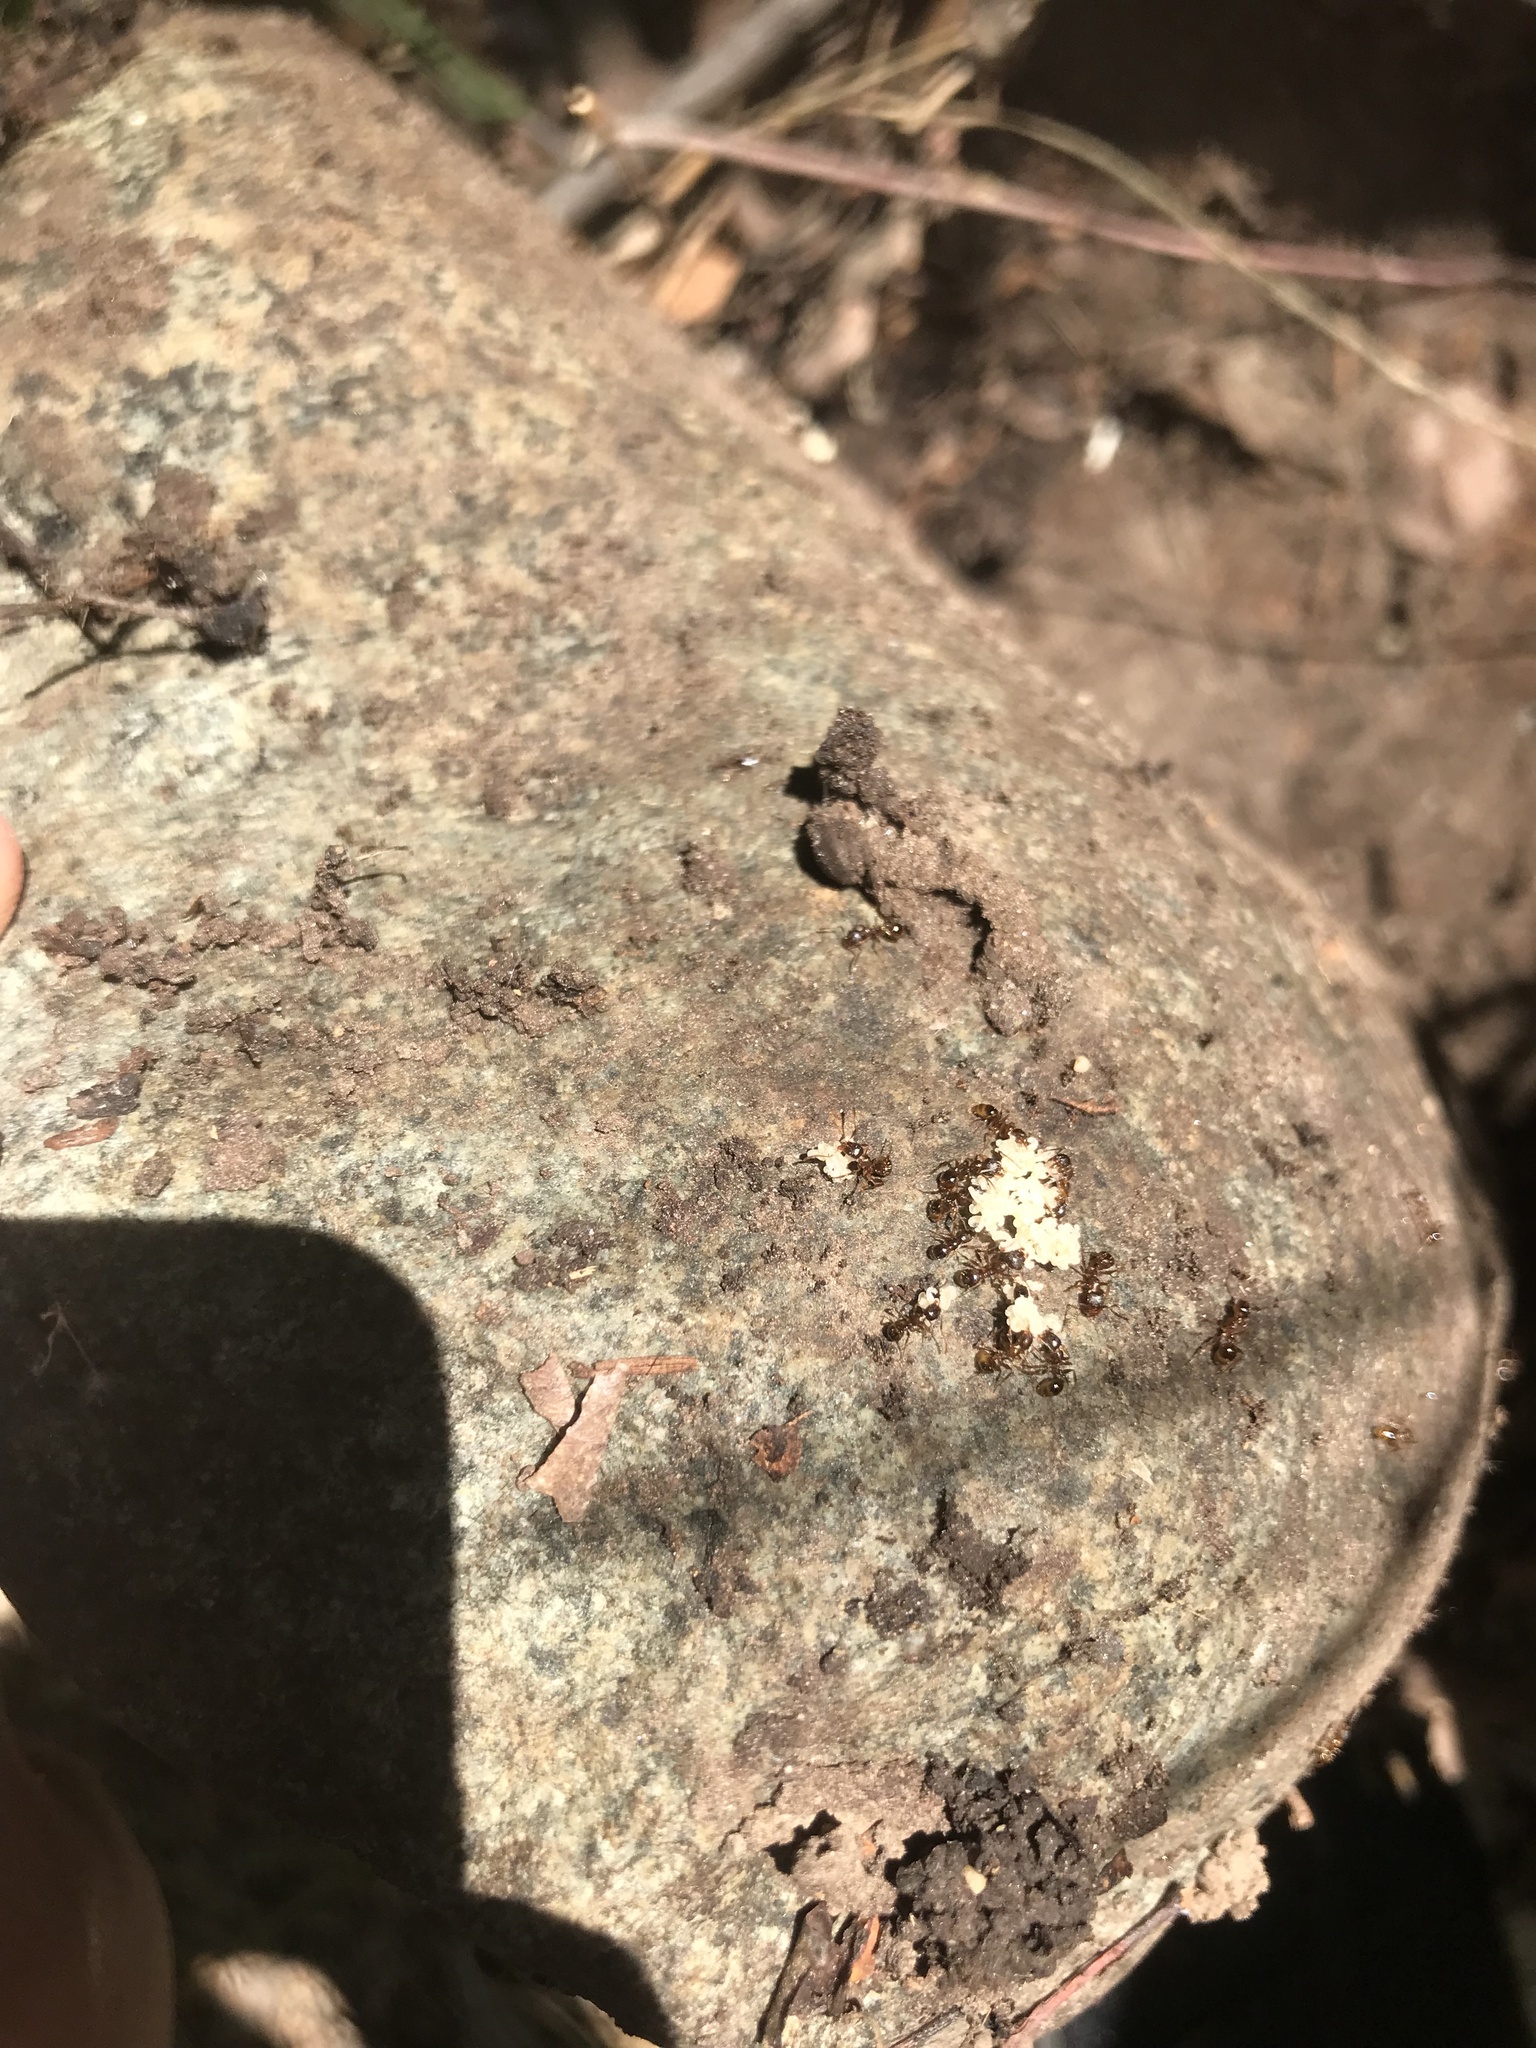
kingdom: Animalia
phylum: Arthropoda
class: Insecta
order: Hymenoptera
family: Formicidae
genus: Aphaenogaster
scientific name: Aphaenogaster occidentalis
